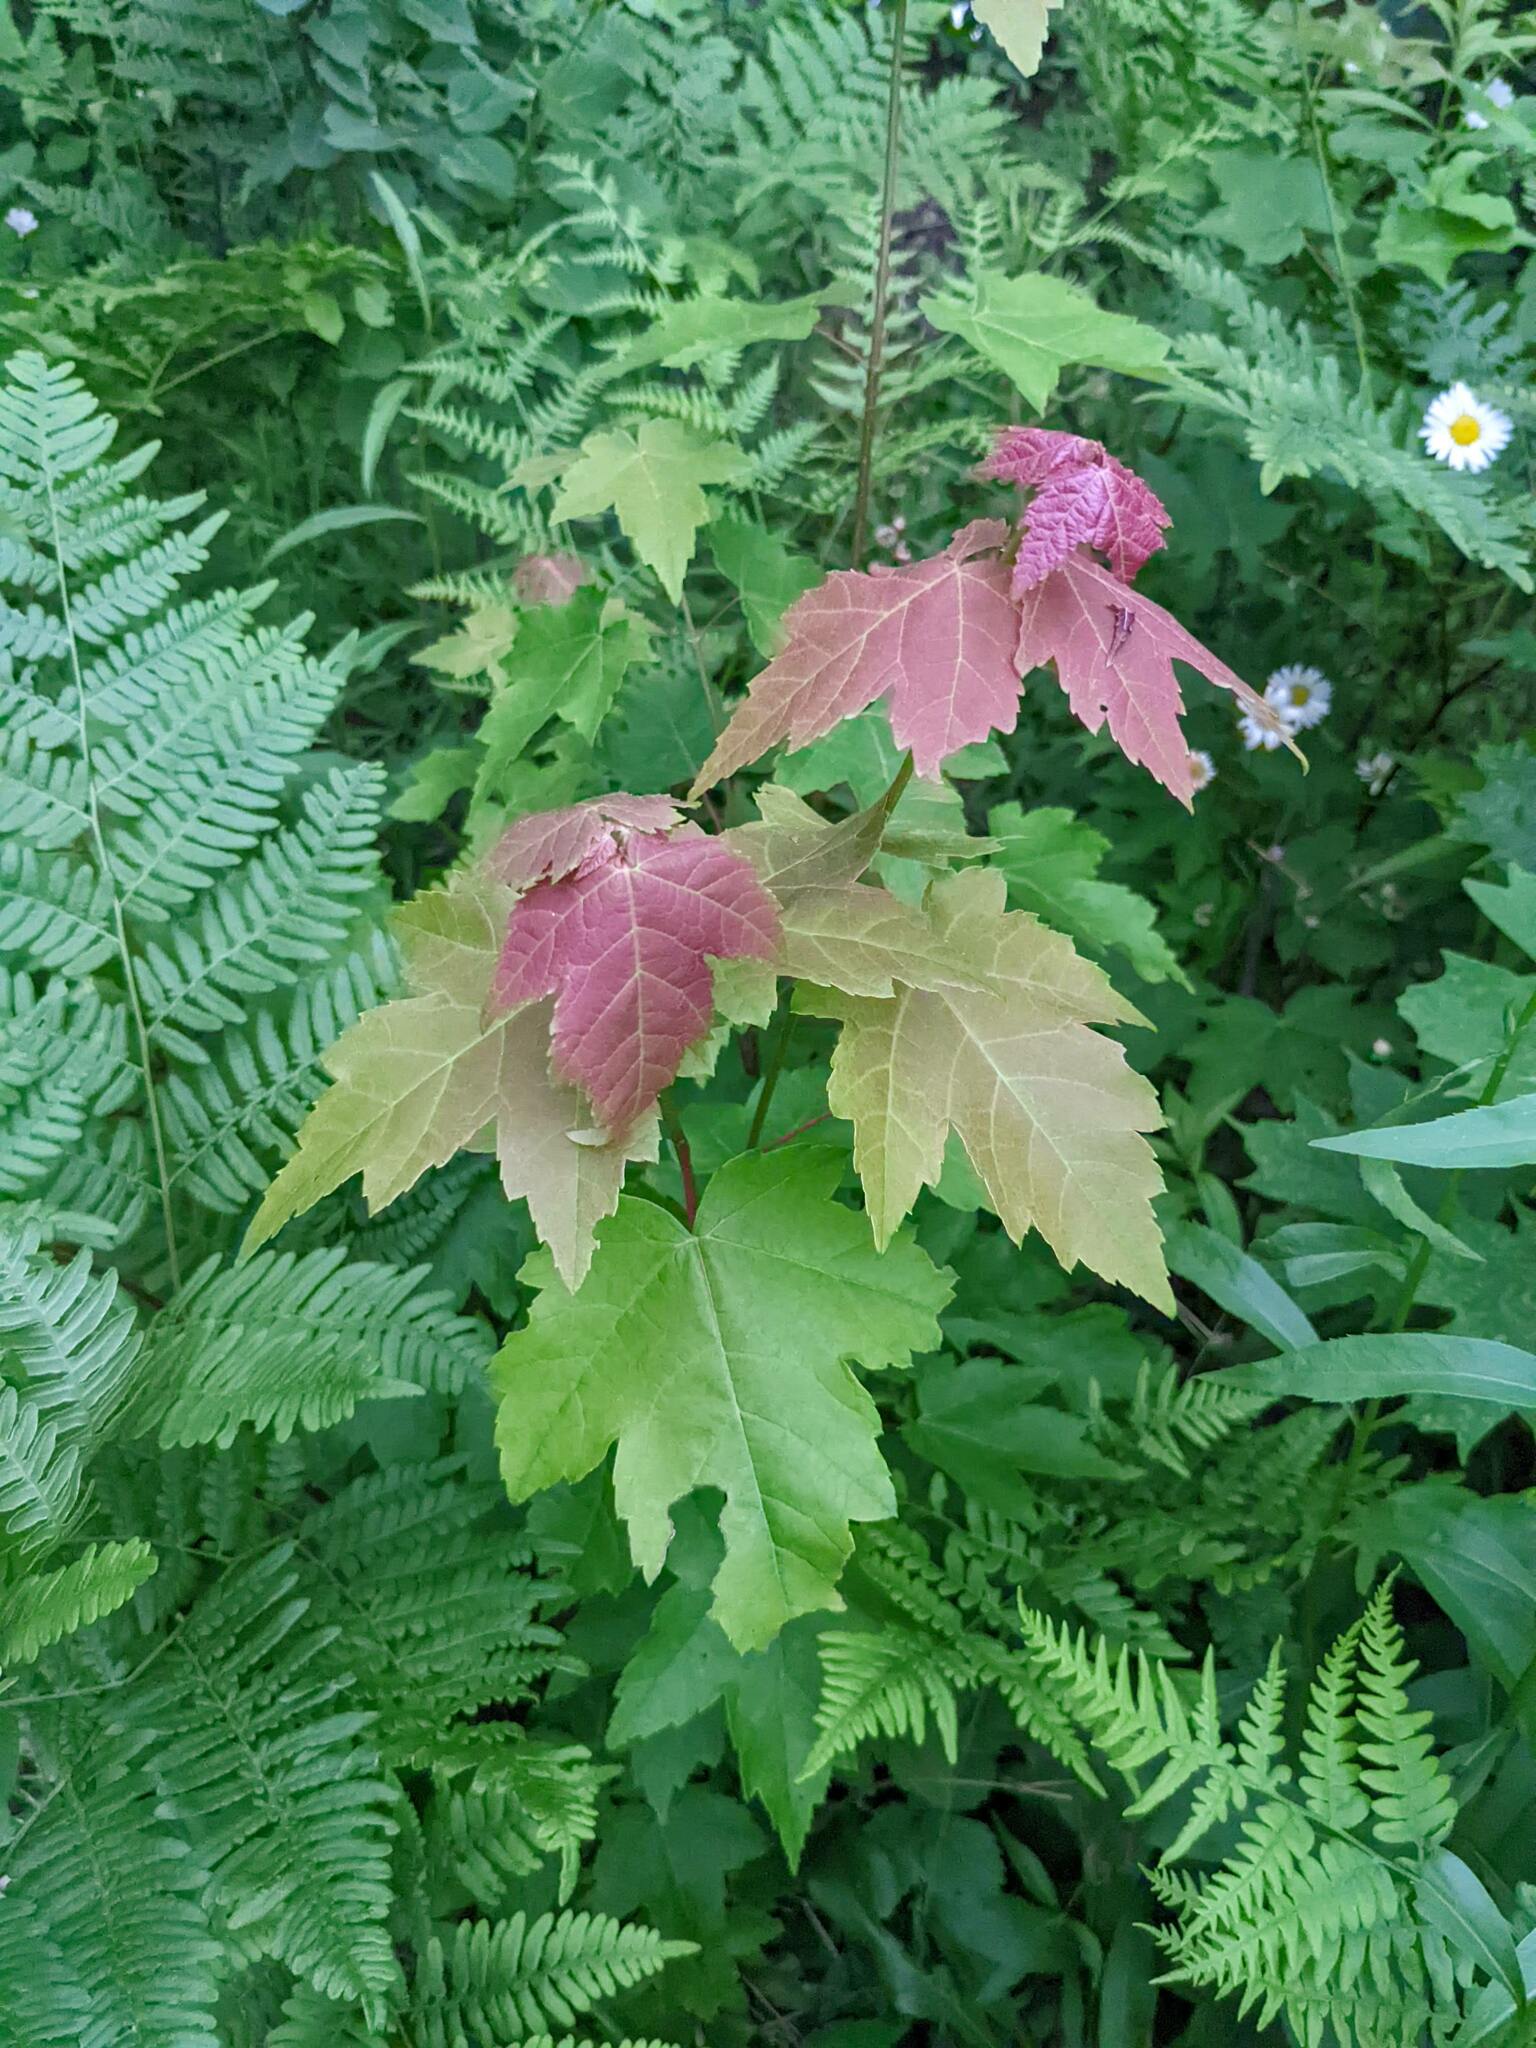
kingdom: Plantae
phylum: Tracheophyta
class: Magnoliopsida
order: Sapindales
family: Sapindaceae
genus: Acer
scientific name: Acer rubrum
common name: Red maple
